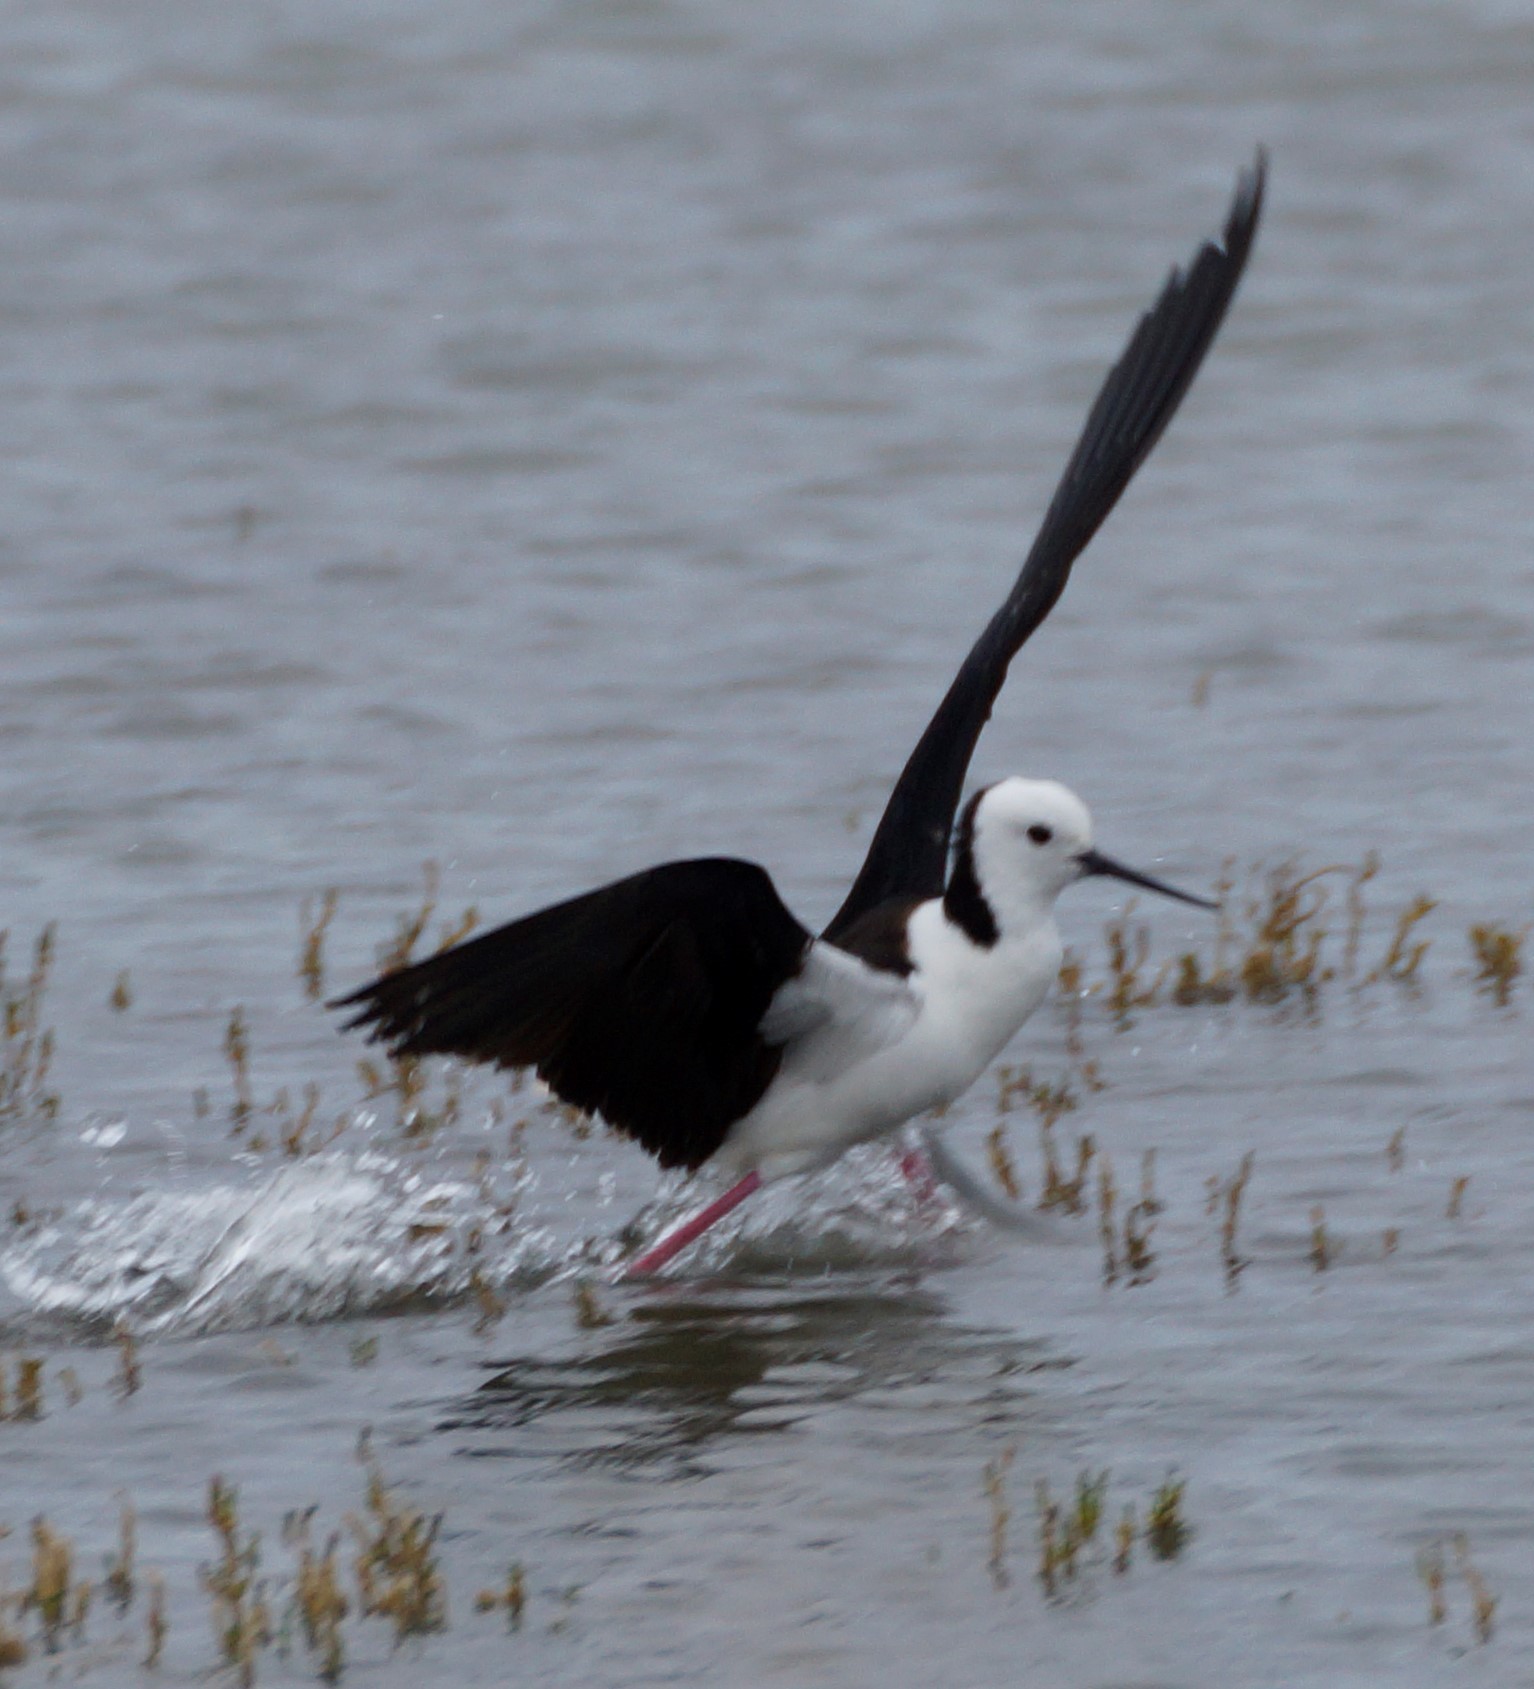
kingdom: Animalia
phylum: Chordata
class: Aves
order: Charadriiformes
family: Recurvirostridae
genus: Himantopus
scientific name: Himantopus leucocephalus
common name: White-headed stilt
